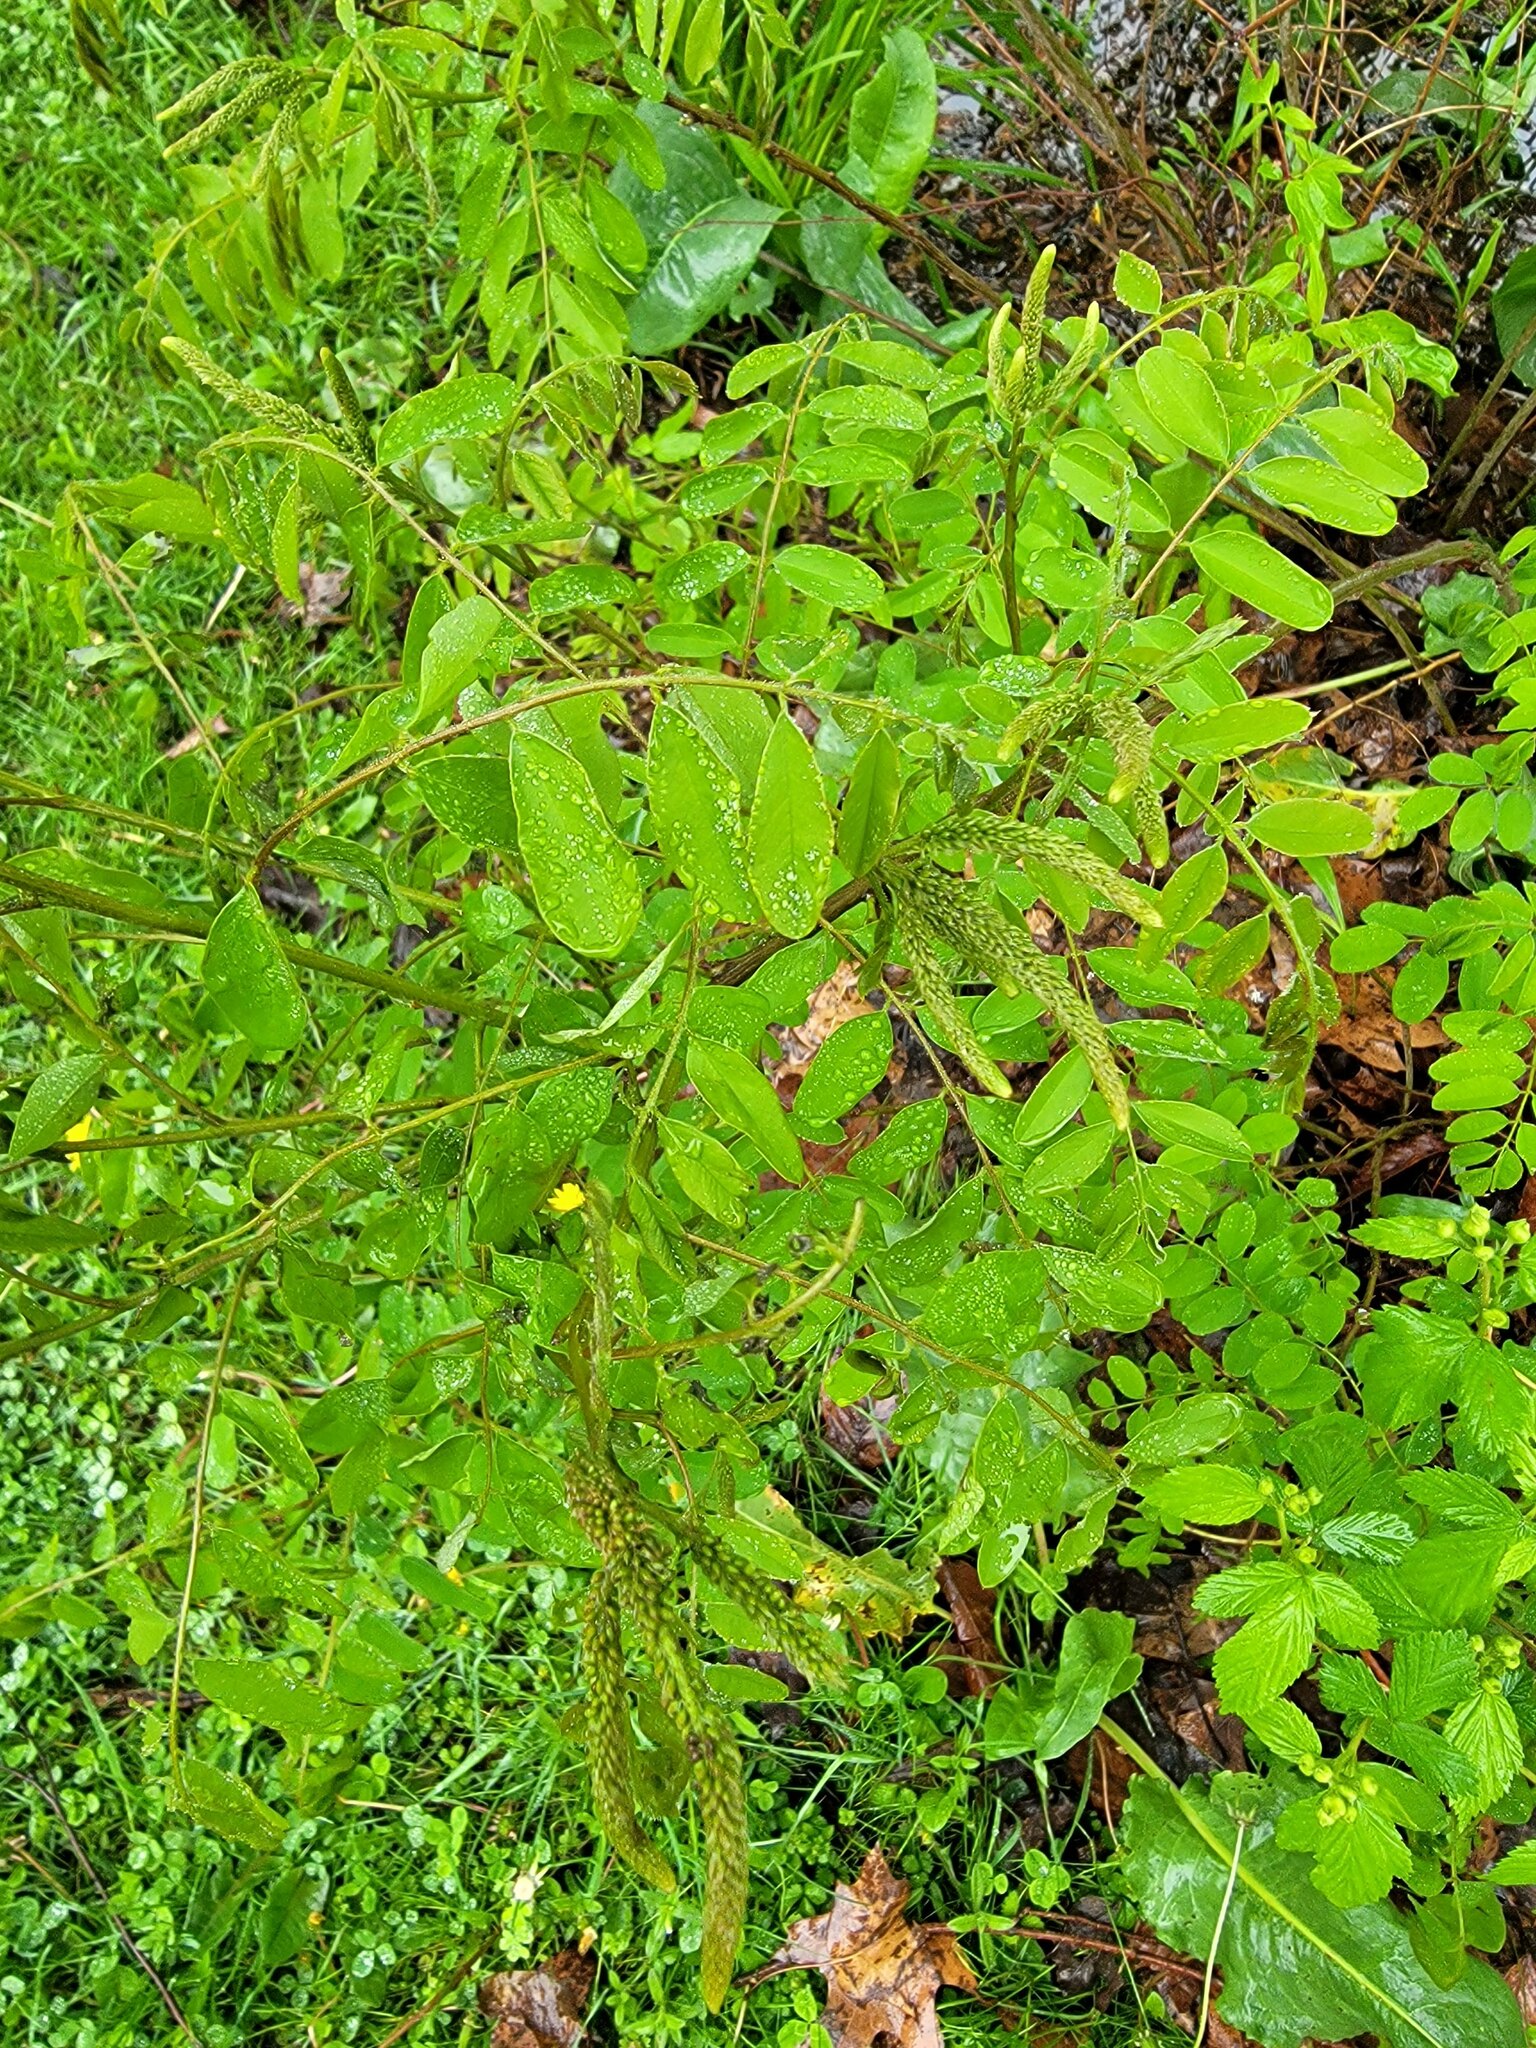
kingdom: Plantae
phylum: Tracheophyta
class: Magnoliopsida
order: Fabales
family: Fabaceae
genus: Robinia
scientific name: Robinia pseudoacacia
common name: Black locust
